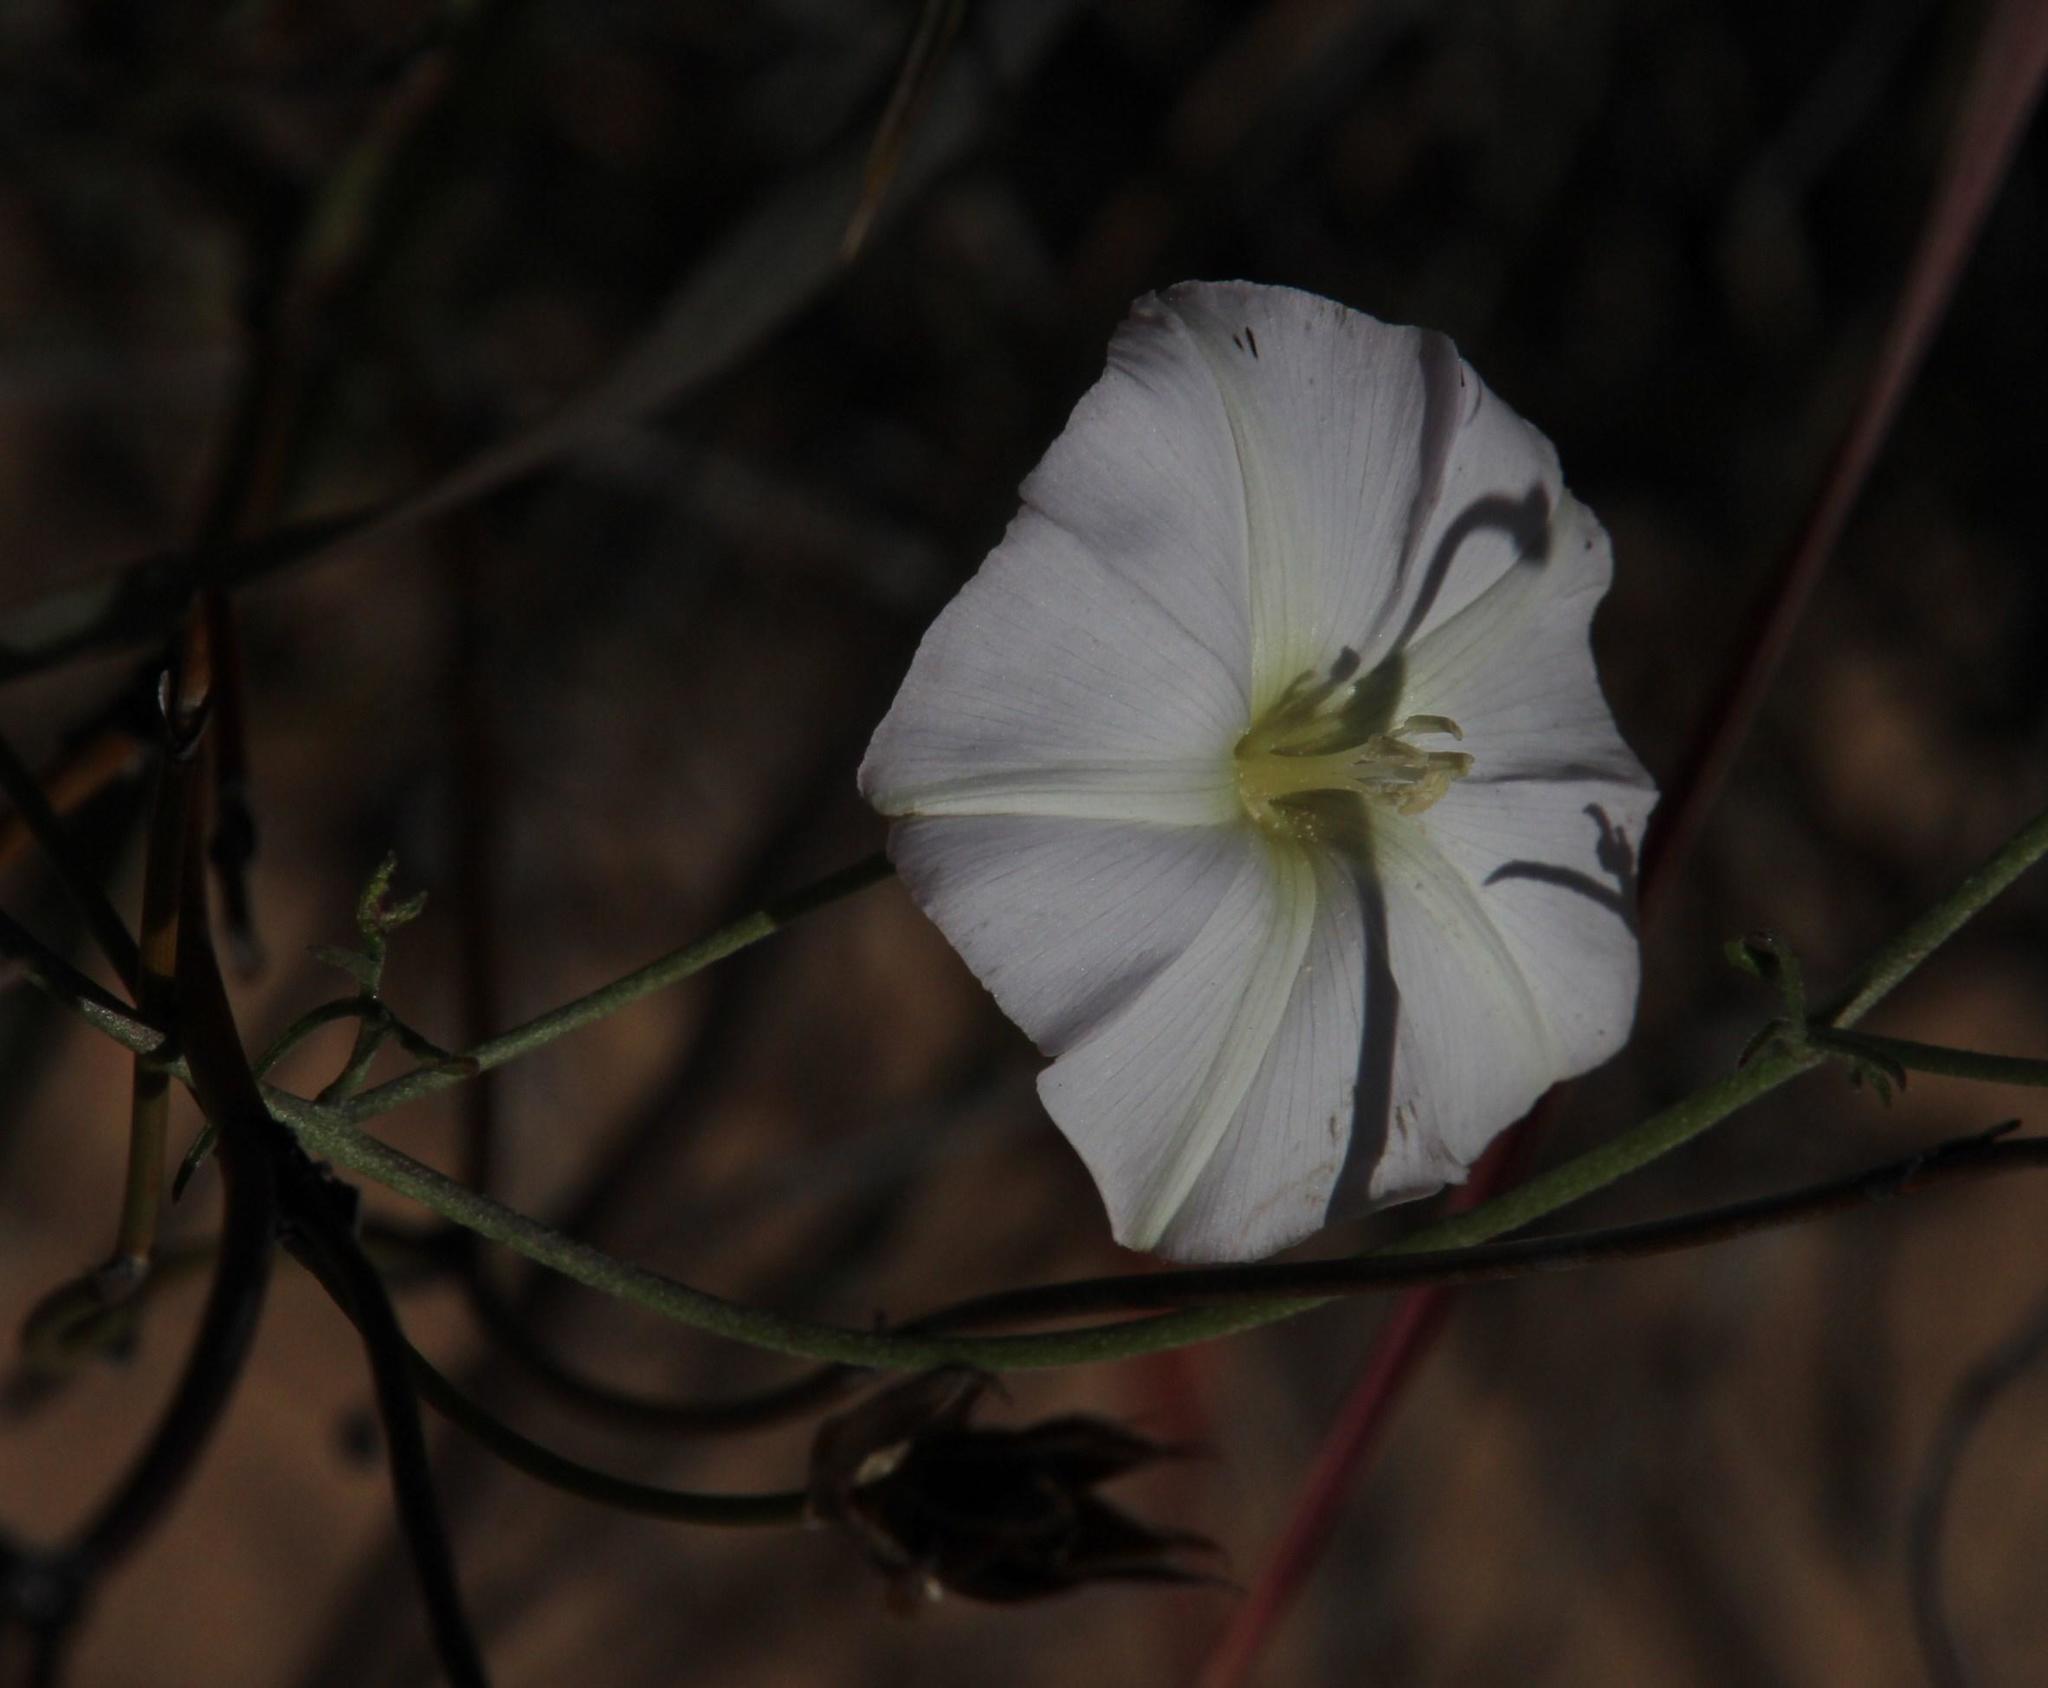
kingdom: Plantae
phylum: Tracheophyta
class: Magnoliopsida
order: Solanales
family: Convolvulaceae
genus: Convolvulus
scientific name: Convolvulus capensis
